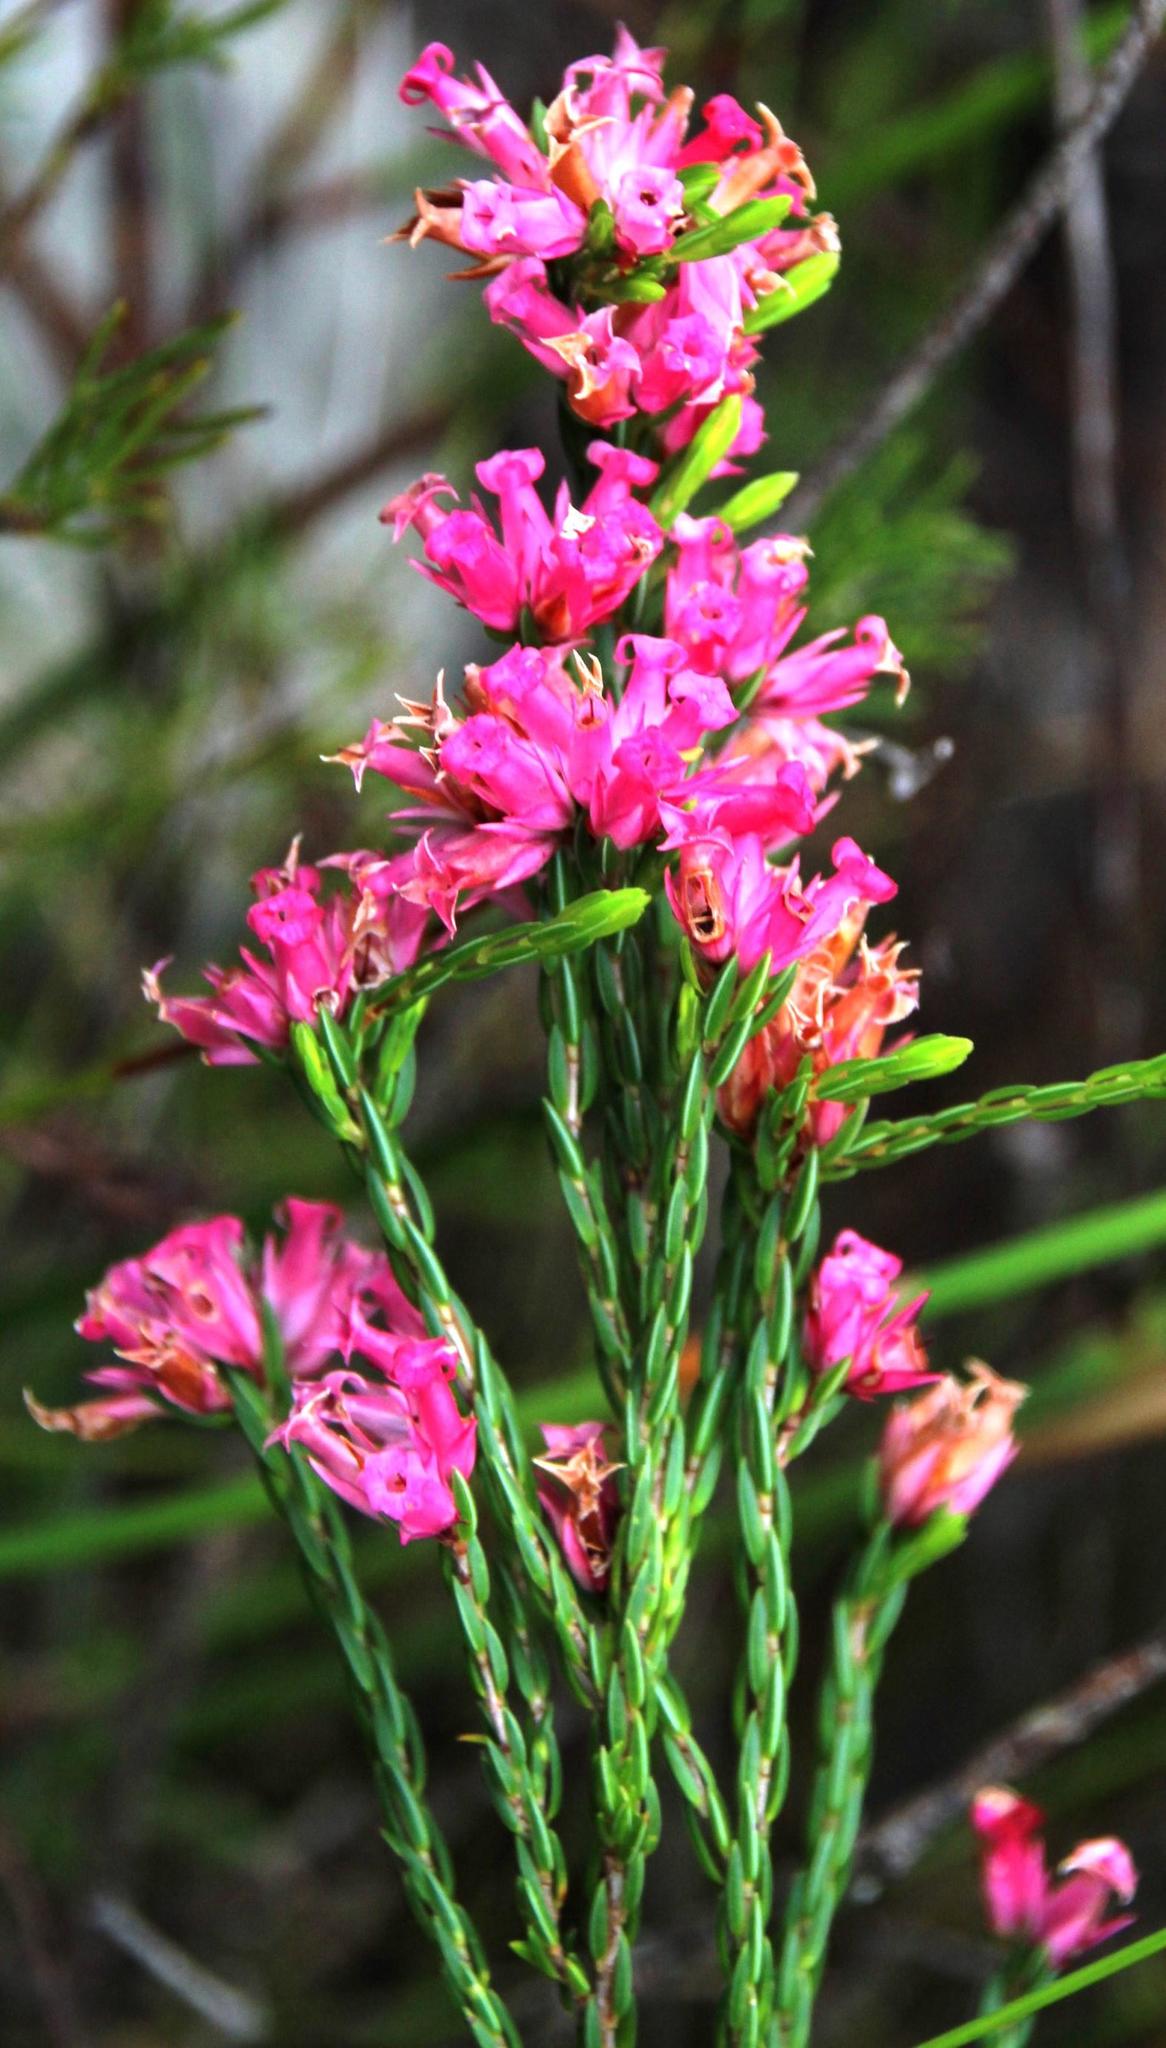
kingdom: Plantae
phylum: Tracheophyta
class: Magnoliopsida
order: Ericales
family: Ericaceae
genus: Erica
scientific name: Erica steinbergiana
